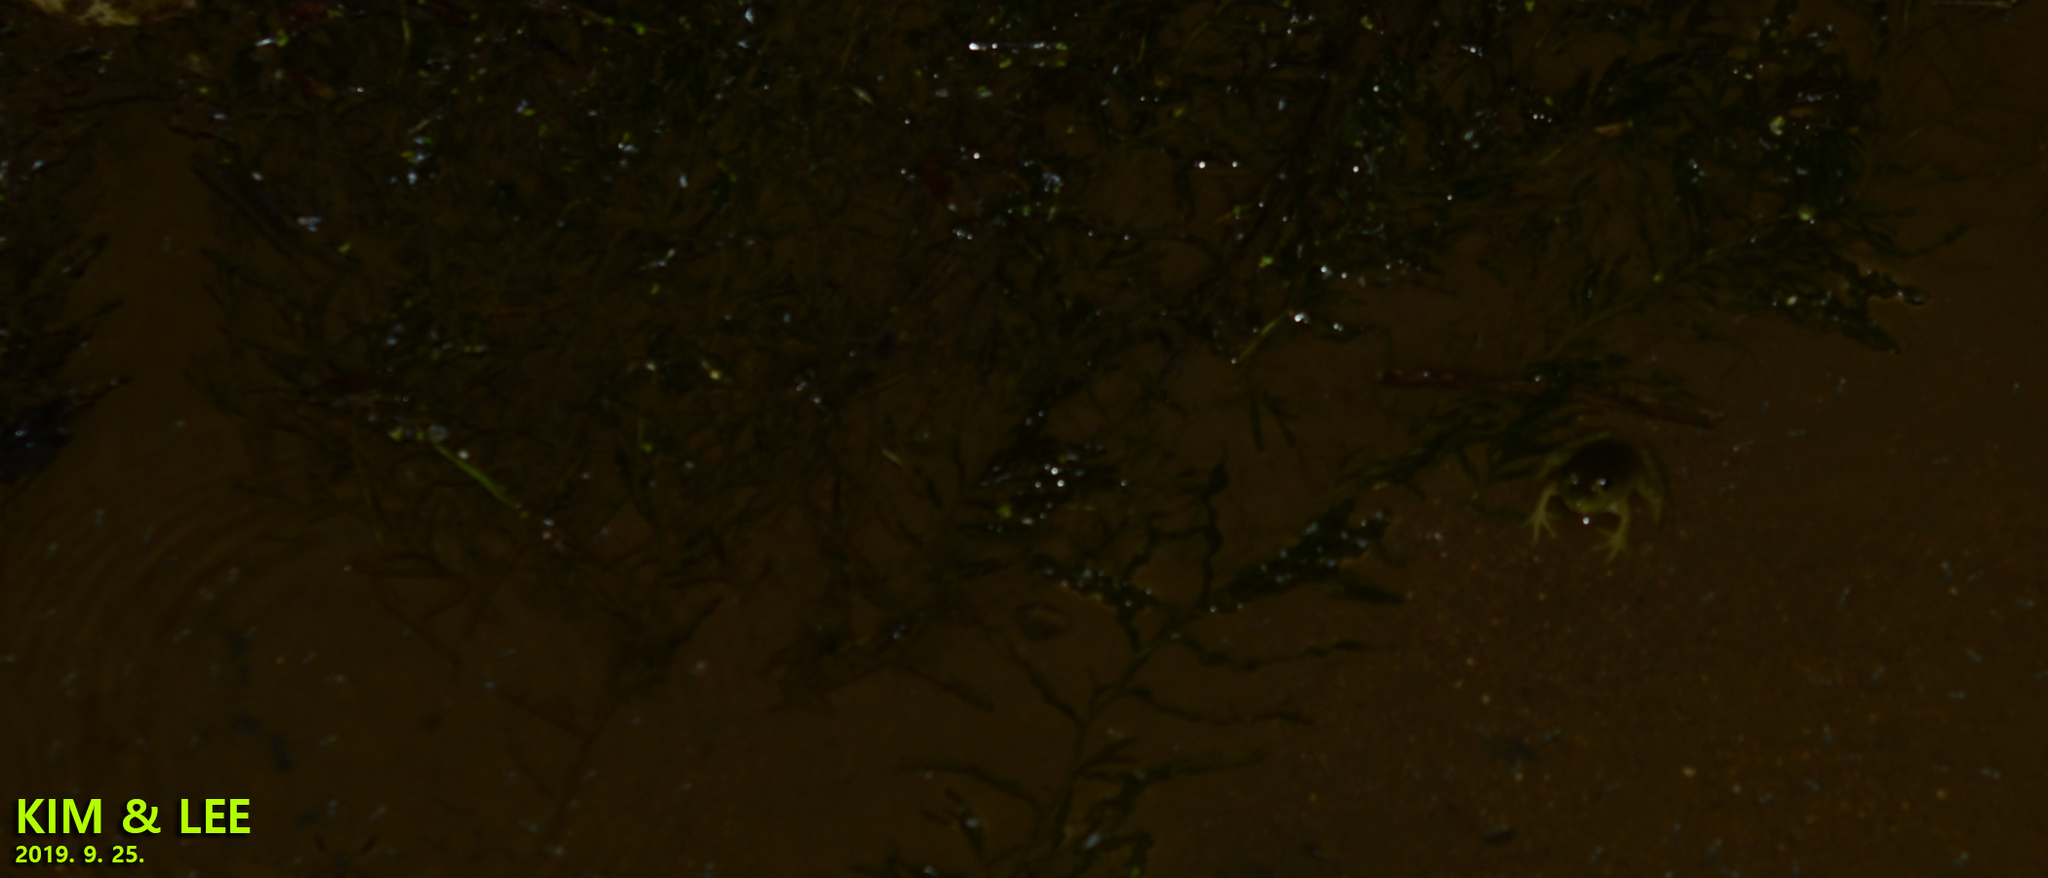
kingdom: Animalia
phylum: Chordata
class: Amphibia
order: Anura
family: Ranidae
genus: Lithobates
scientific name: Lithobates catesbeianus
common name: American bullfrog
